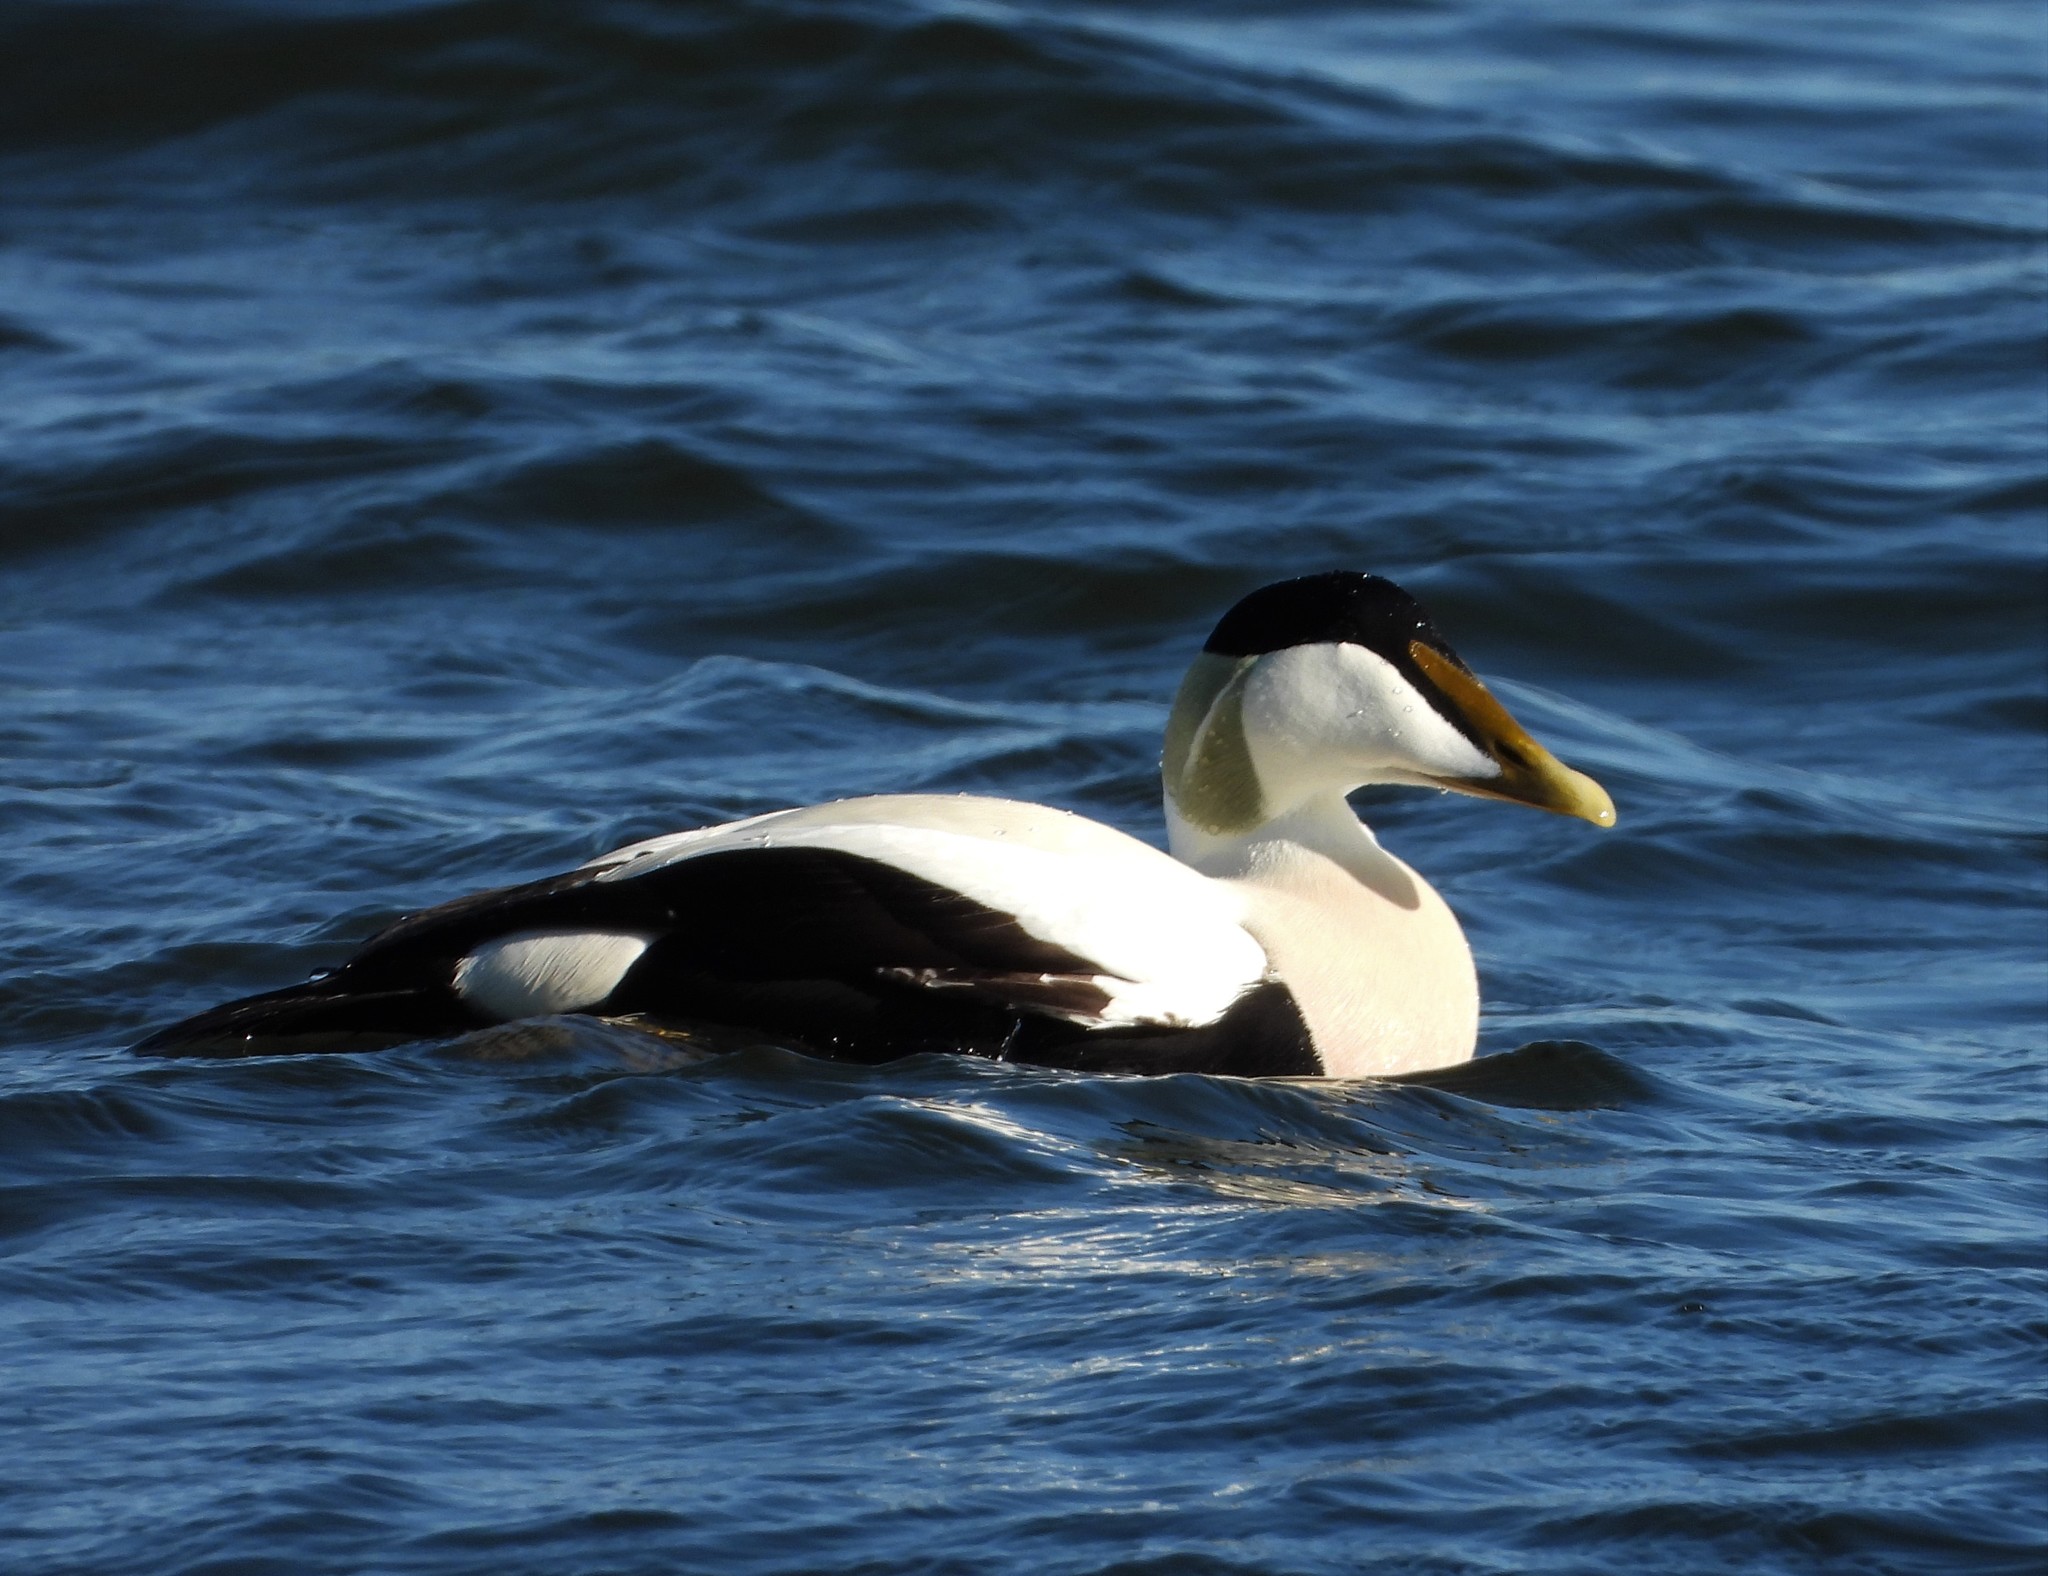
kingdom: Animalia
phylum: Chordata
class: Aves
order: Anseriformes
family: Anatidae
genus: Somateria
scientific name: Somateria mollissima
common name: Common eider
